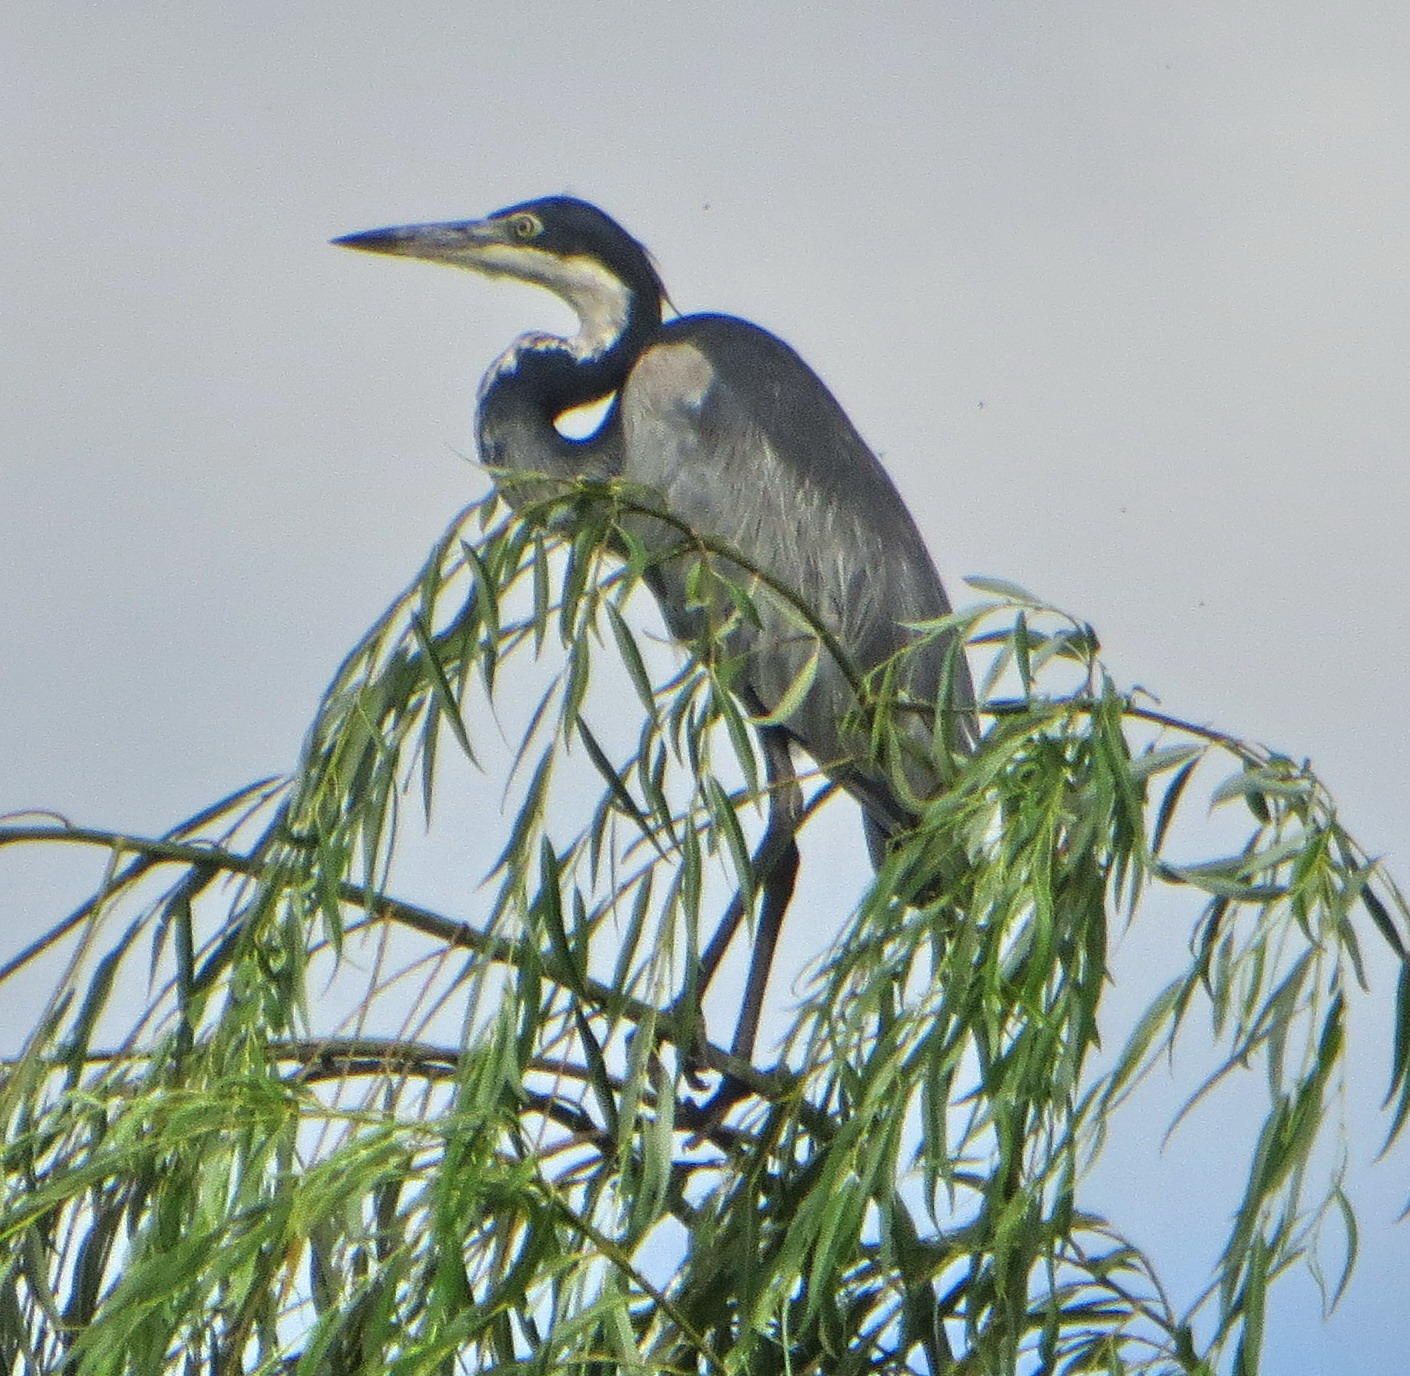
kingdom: Animalia
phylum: Chordata
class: Aves
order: Pelecaniformes
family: Ardeidae
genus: Ardea
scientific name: Ardea melanocephala
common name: Black-headed heron
